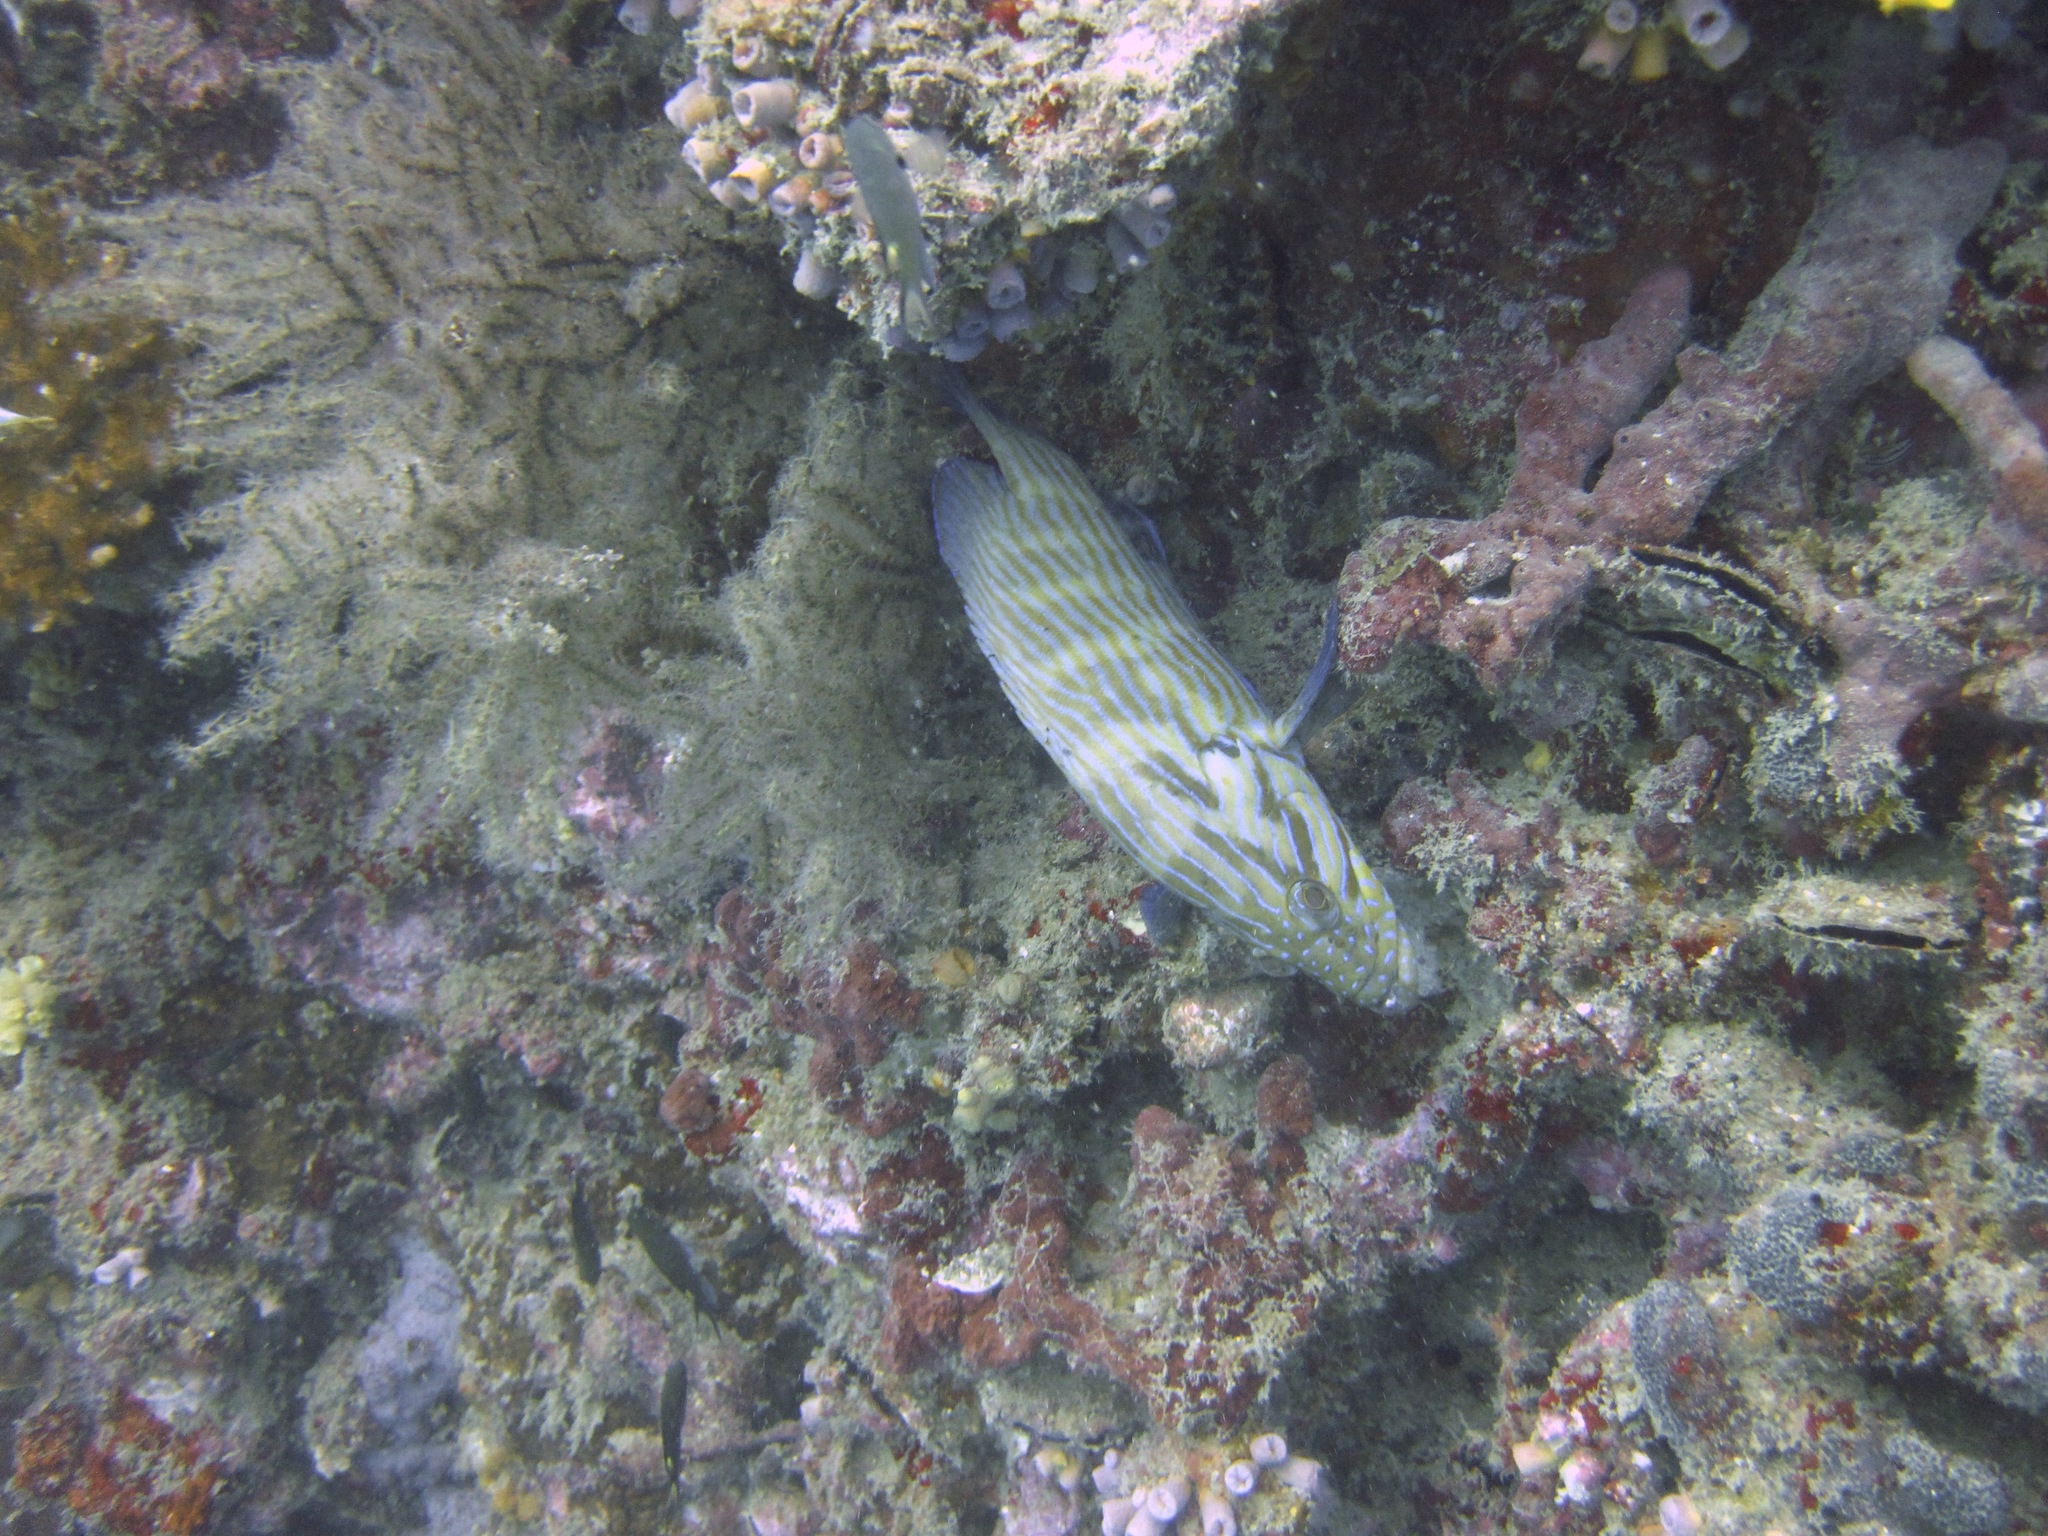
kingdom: Animalia
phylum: Chordata
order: Perciformes
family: Serranidae
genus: Cephalopholis
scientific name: Cephalopholis formosa
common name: Bluelined hind
